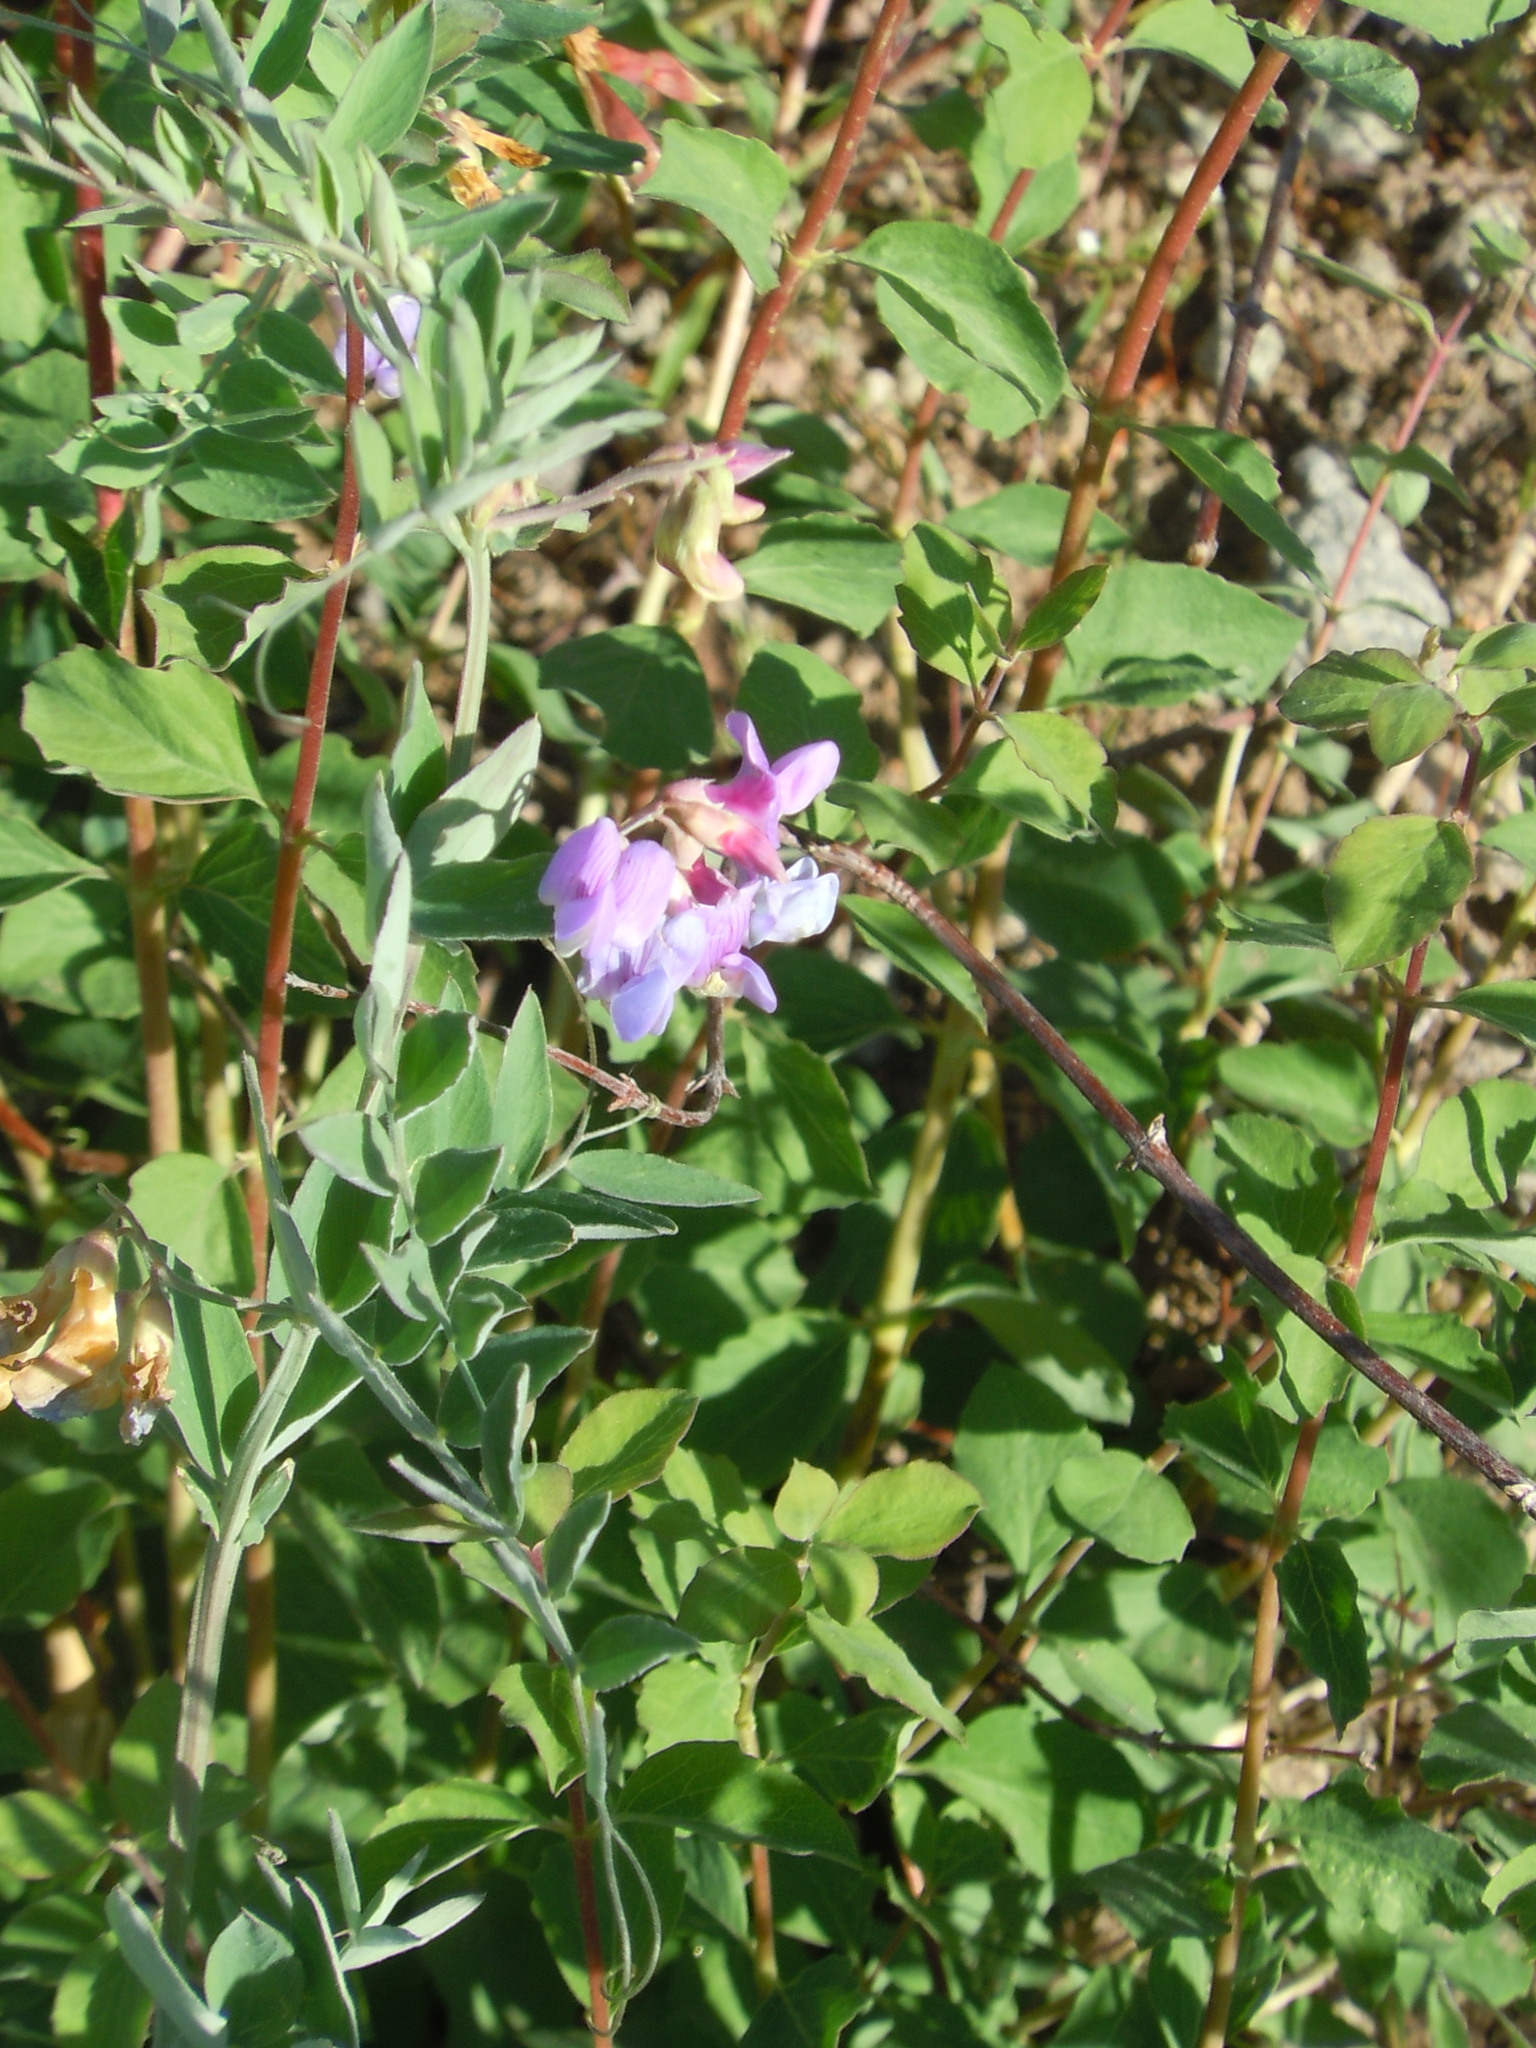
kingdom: Plantae
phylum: Tracheophyta
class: Magnoliopsida
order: Fabales
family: Fabaceae
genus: Lathyrus
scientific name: Lathyrus nevadensis
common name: Sierra nevada peavine
